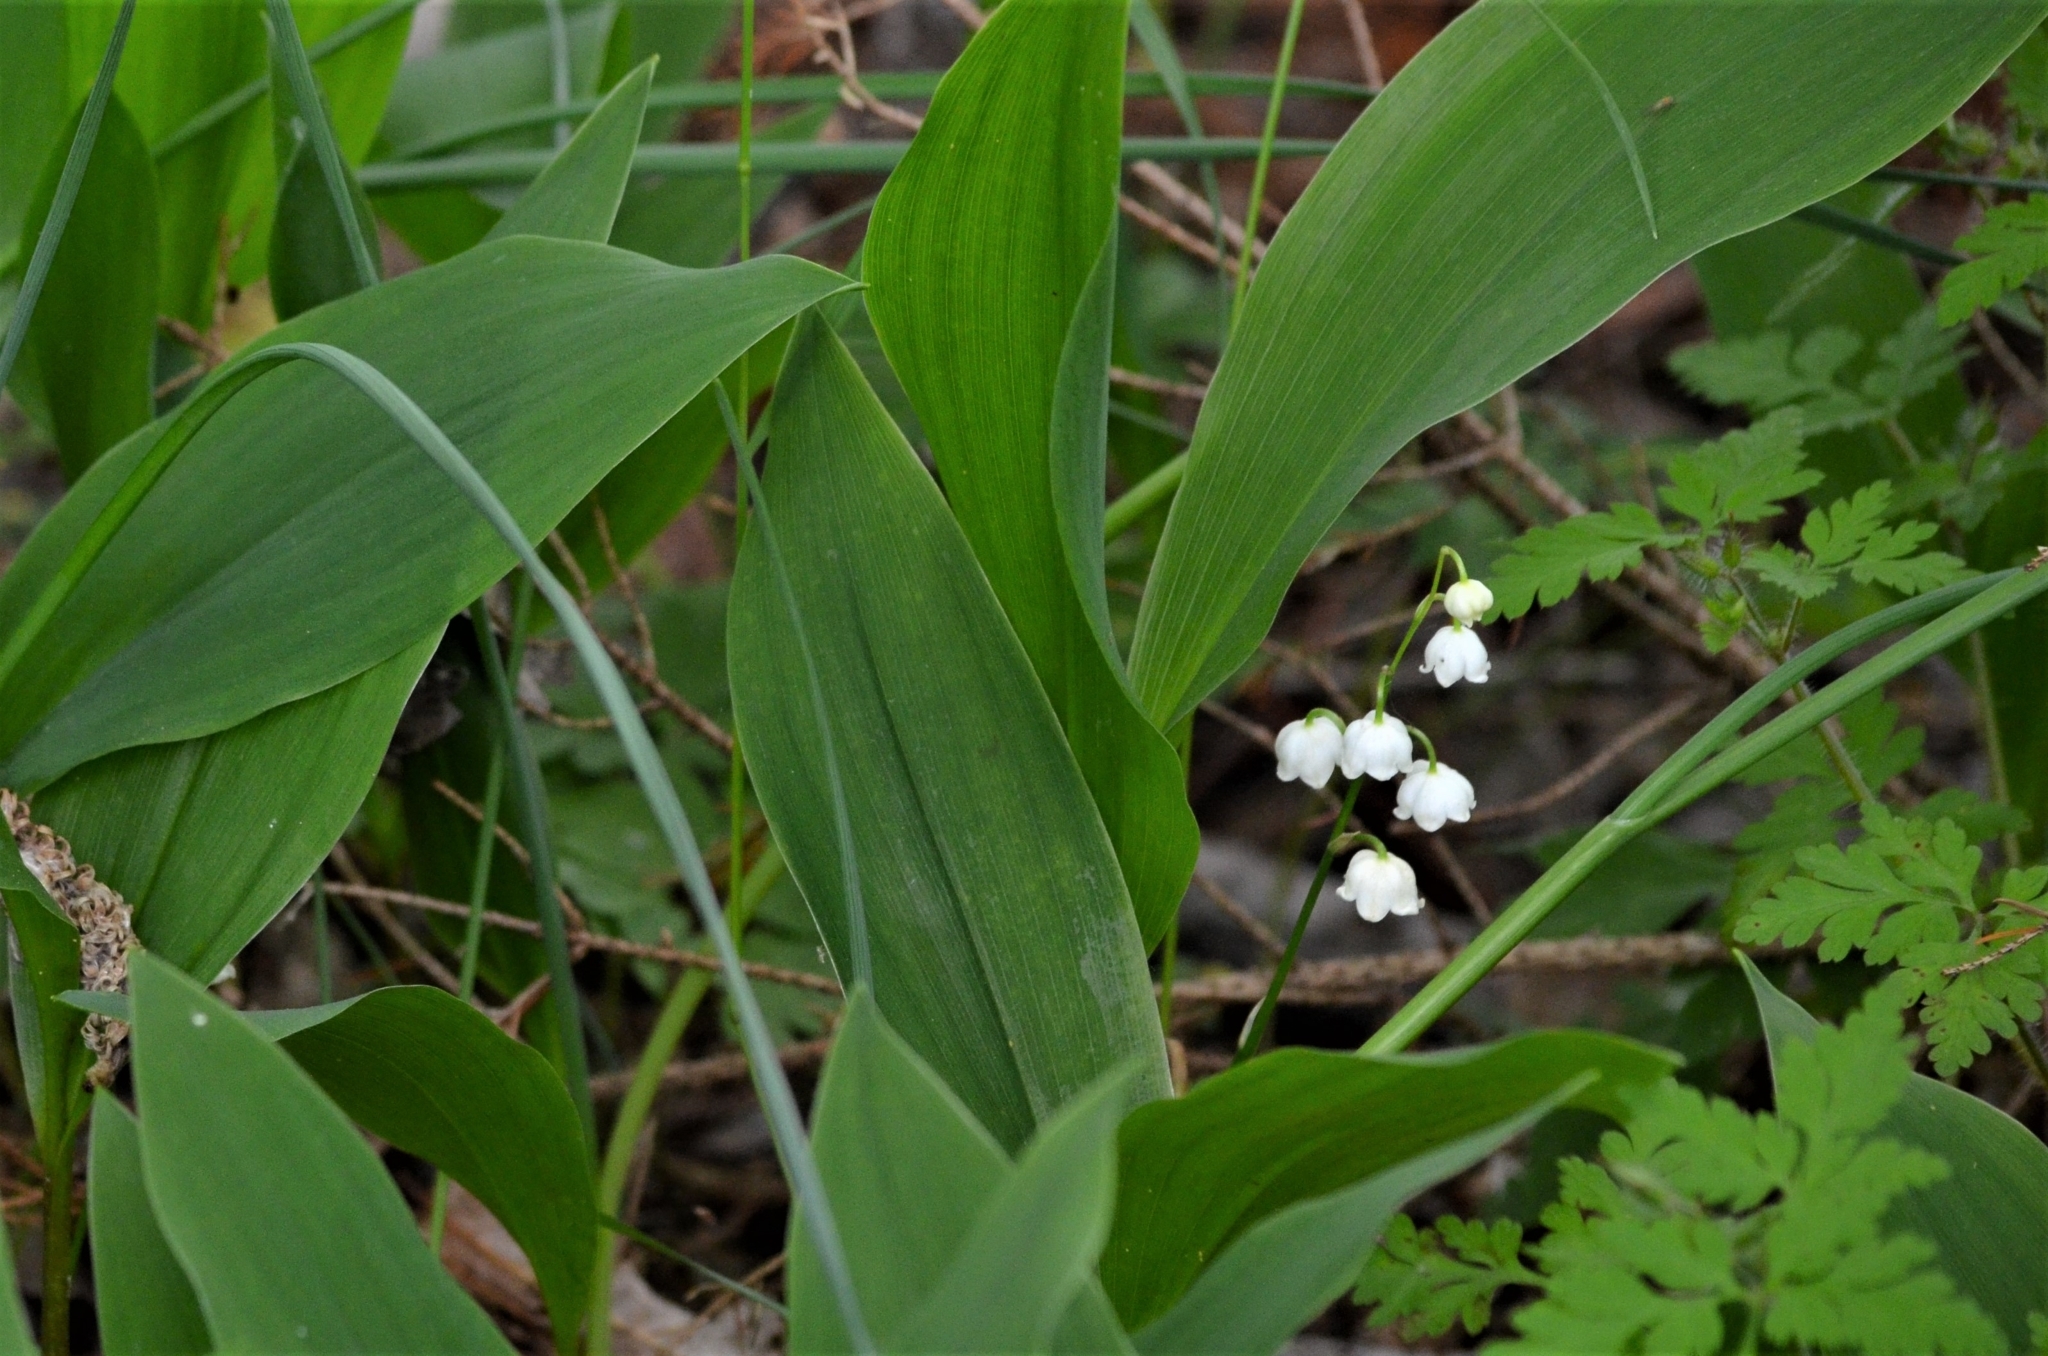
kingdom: Plantae
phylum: Tracheophyta
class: Liliopsida
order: Asparagales
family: Asparagaceae
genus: Convallaria
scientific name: Convallaria majalis
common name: Lily-of-the-valley
